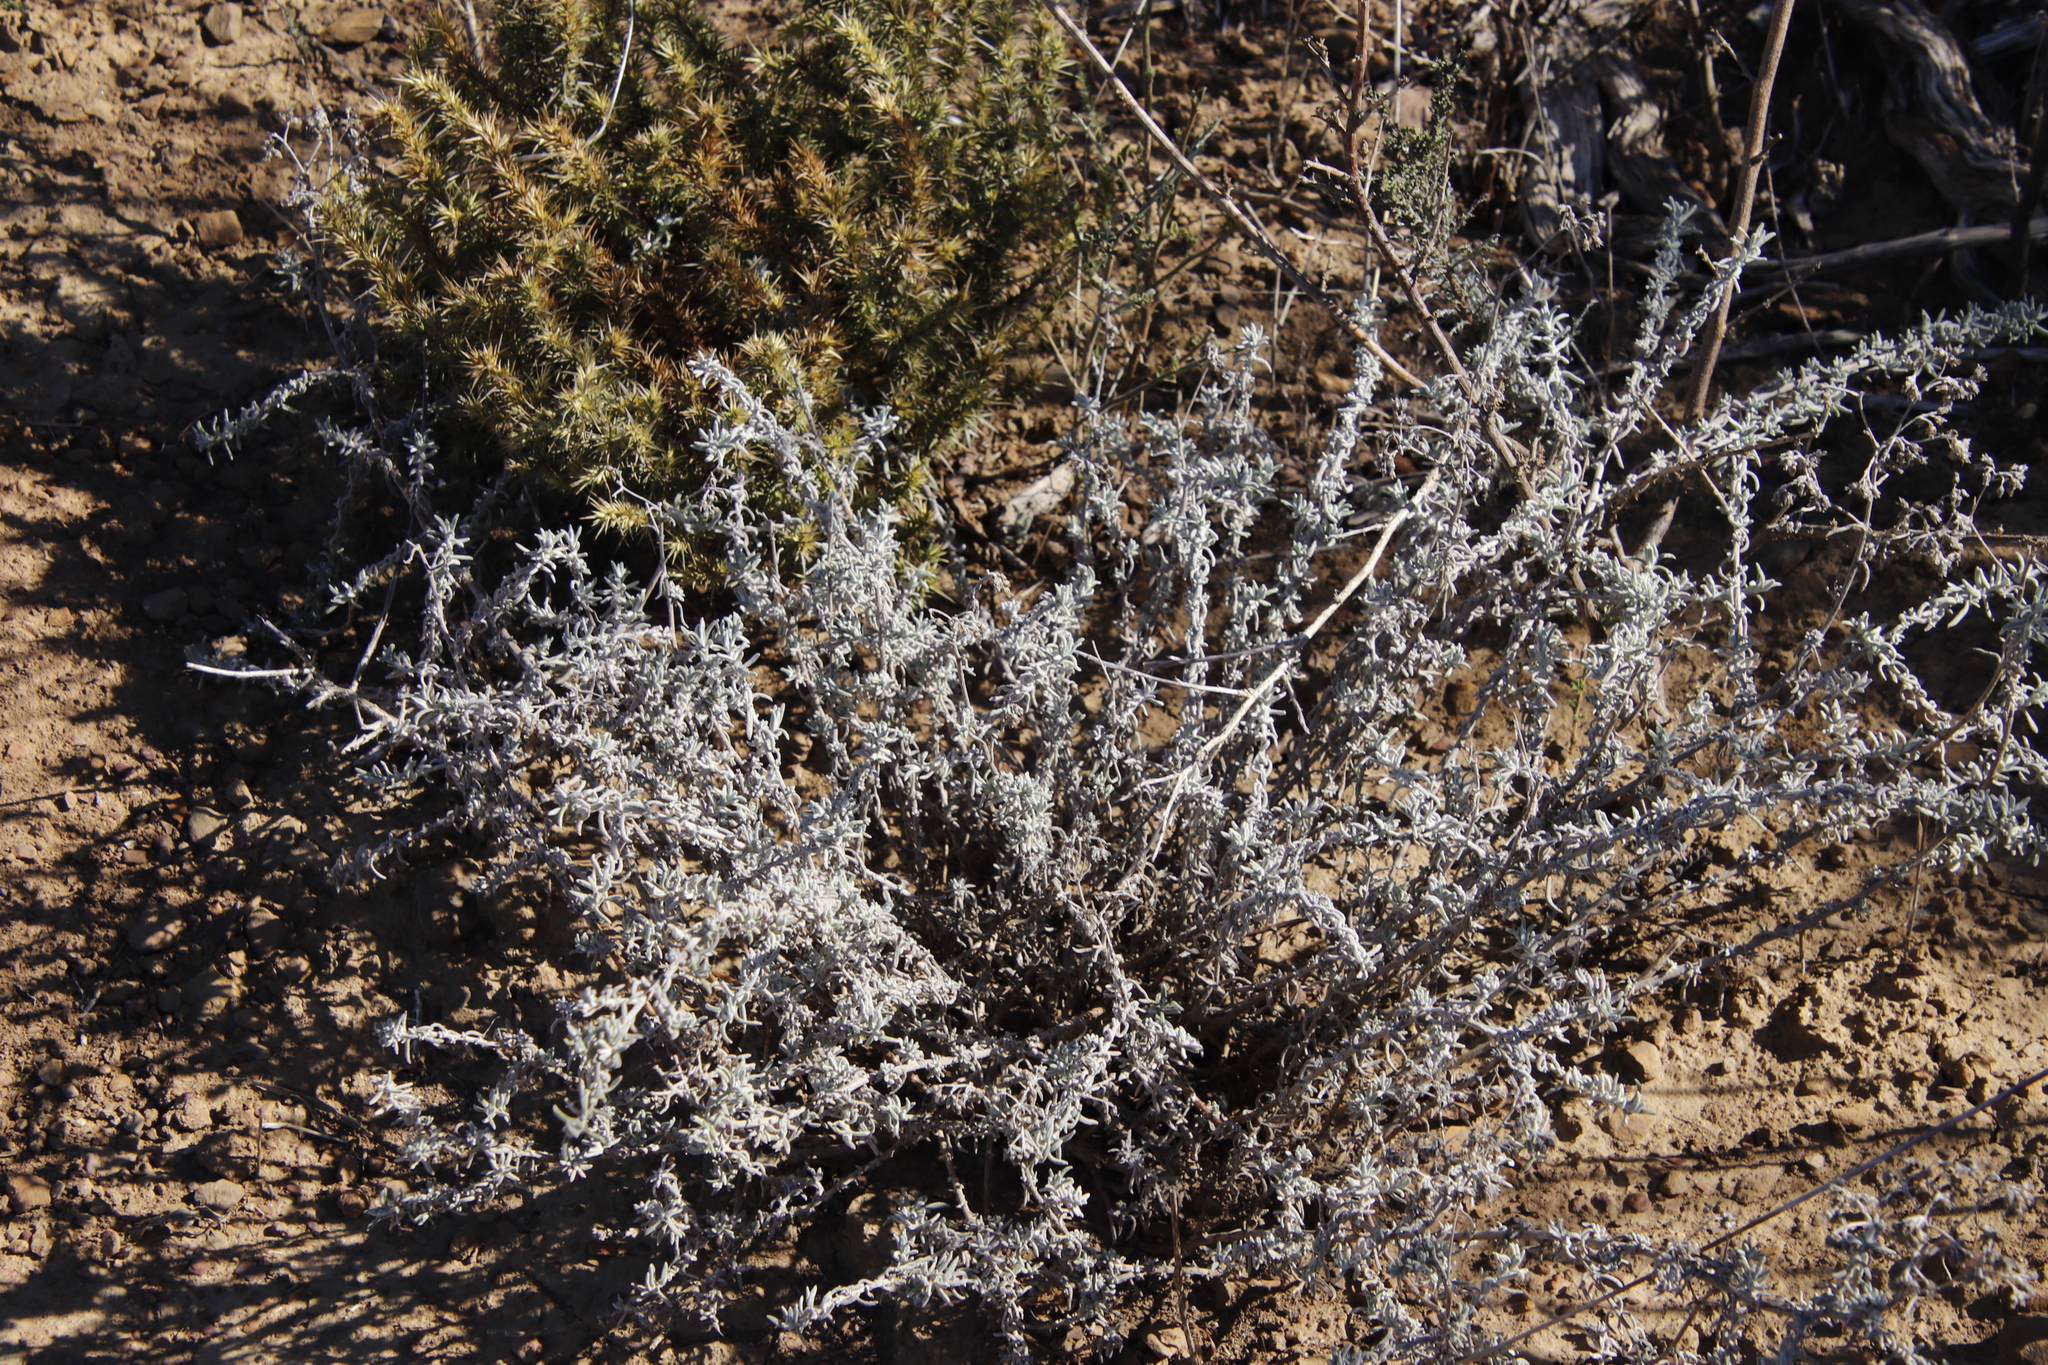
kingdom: Plantae
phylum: Tracheophyta
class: Magnoliopsida
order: Fabales
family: Polygalaceae
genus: Muraltia
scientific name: Muraltia ononidifolia
